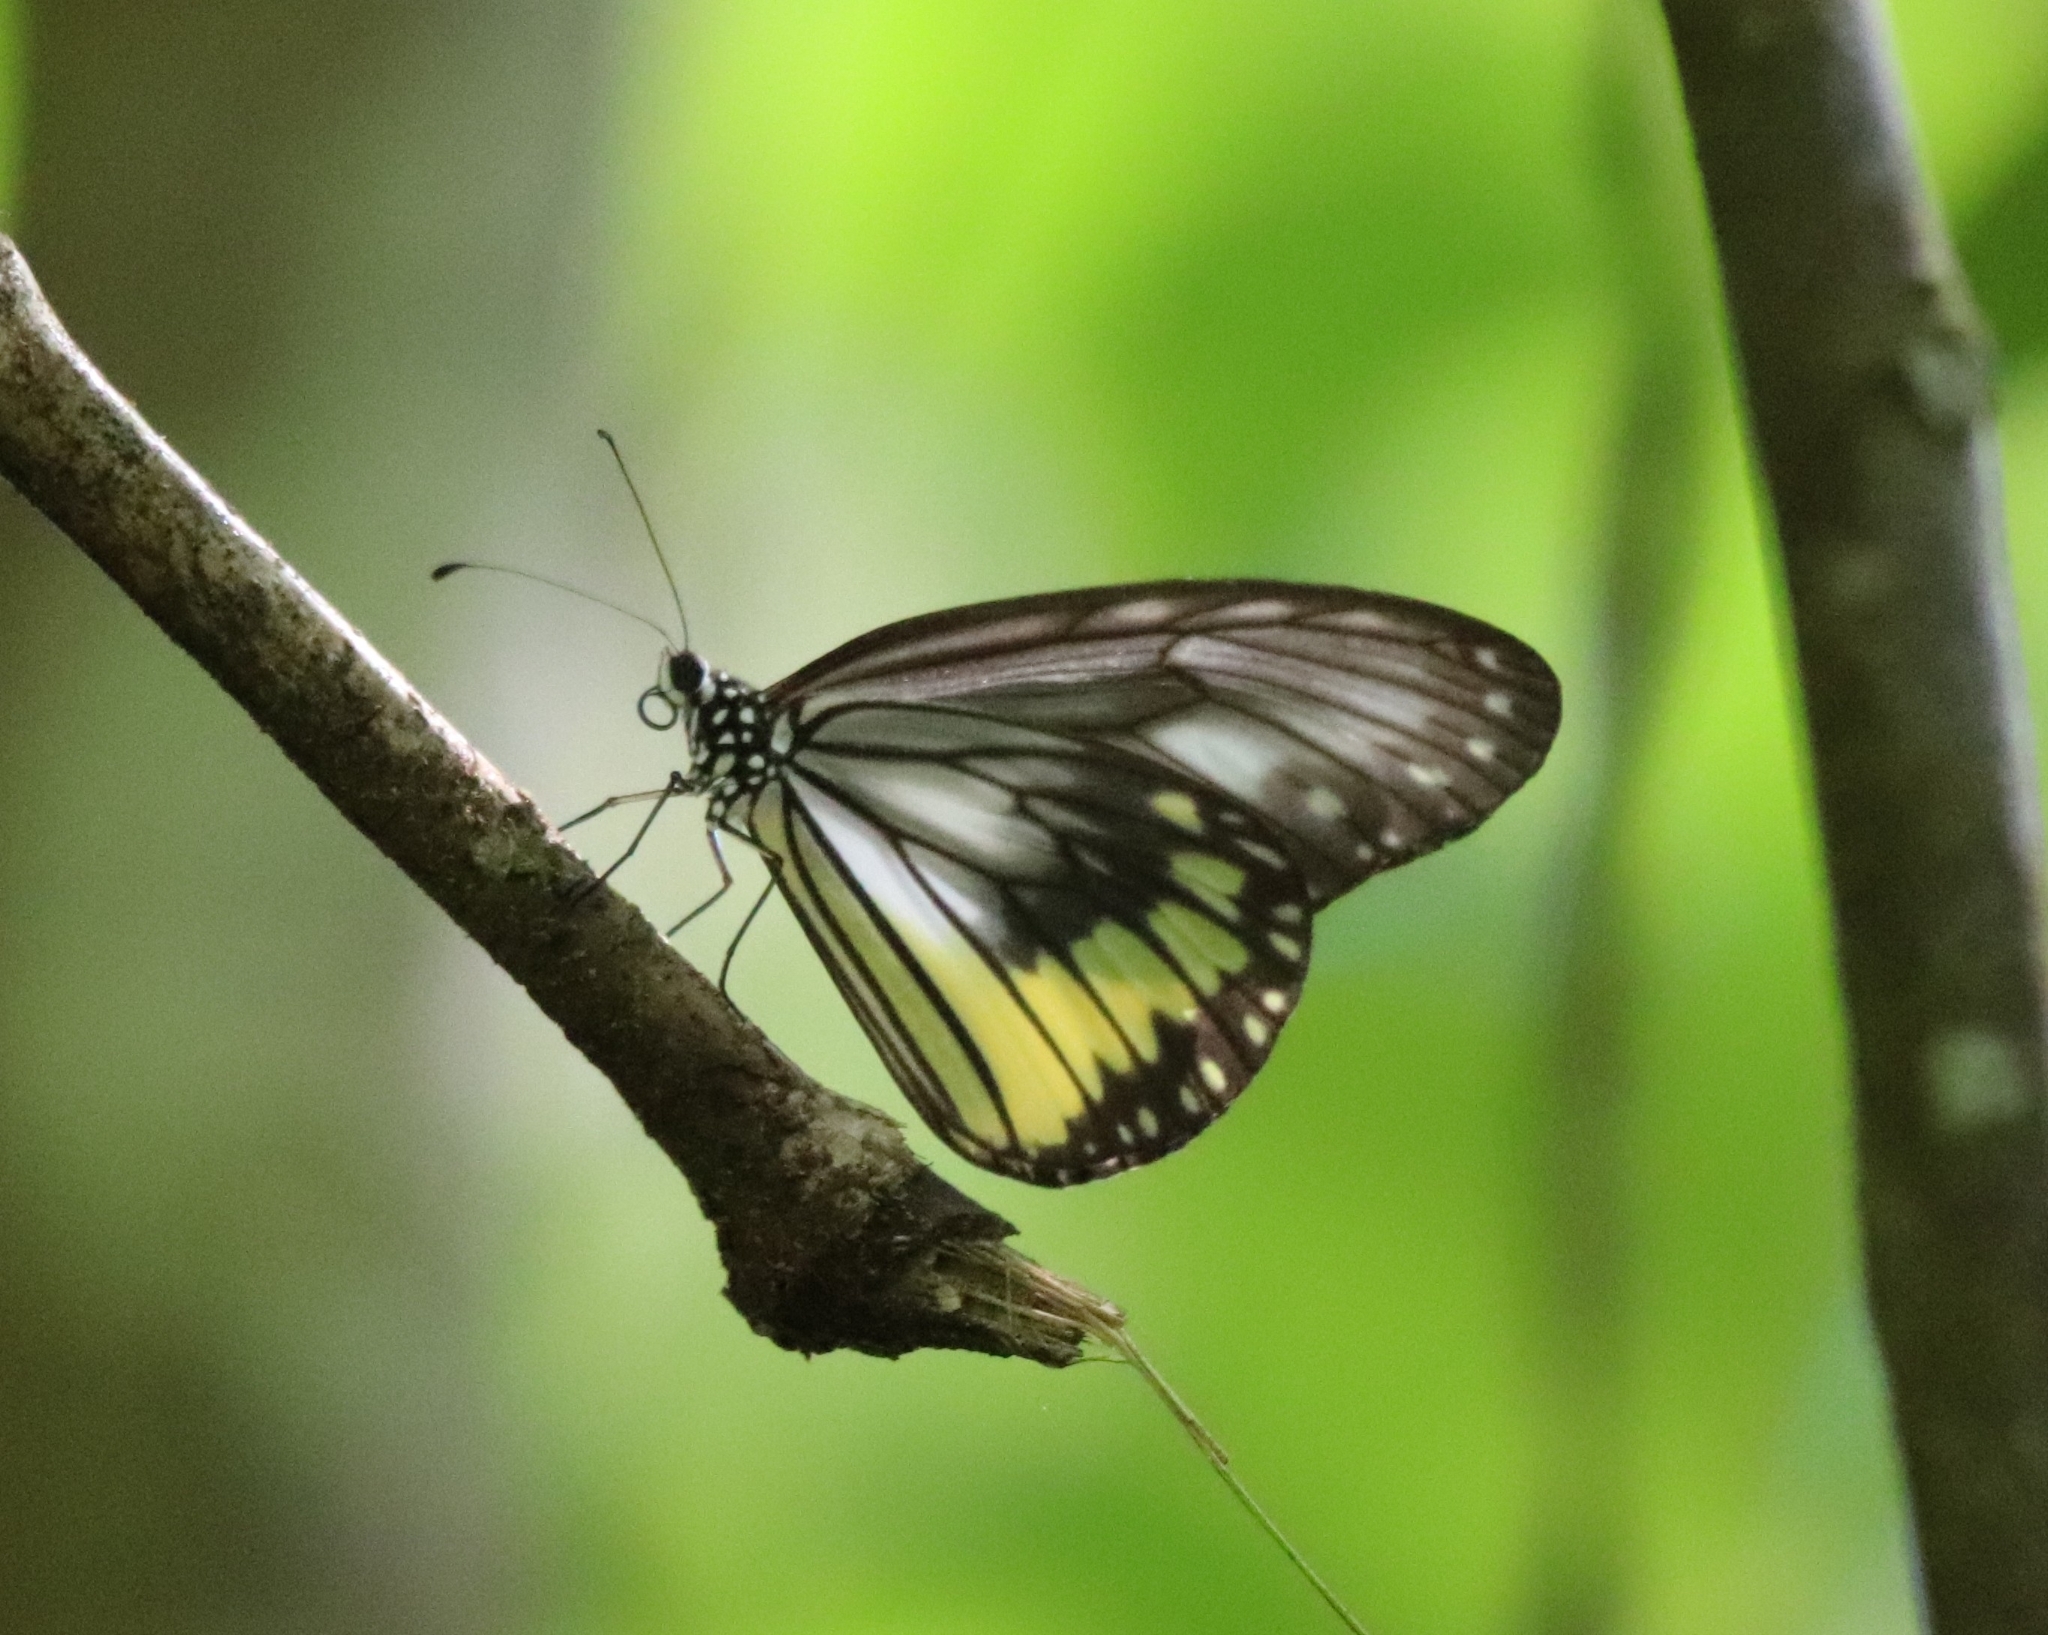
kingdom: Animalia
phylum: Arthropoda
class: Insecta
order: Lepidoptera
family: Nymphalidae
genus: Ideopsis
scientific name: Ideopsis vitrea
